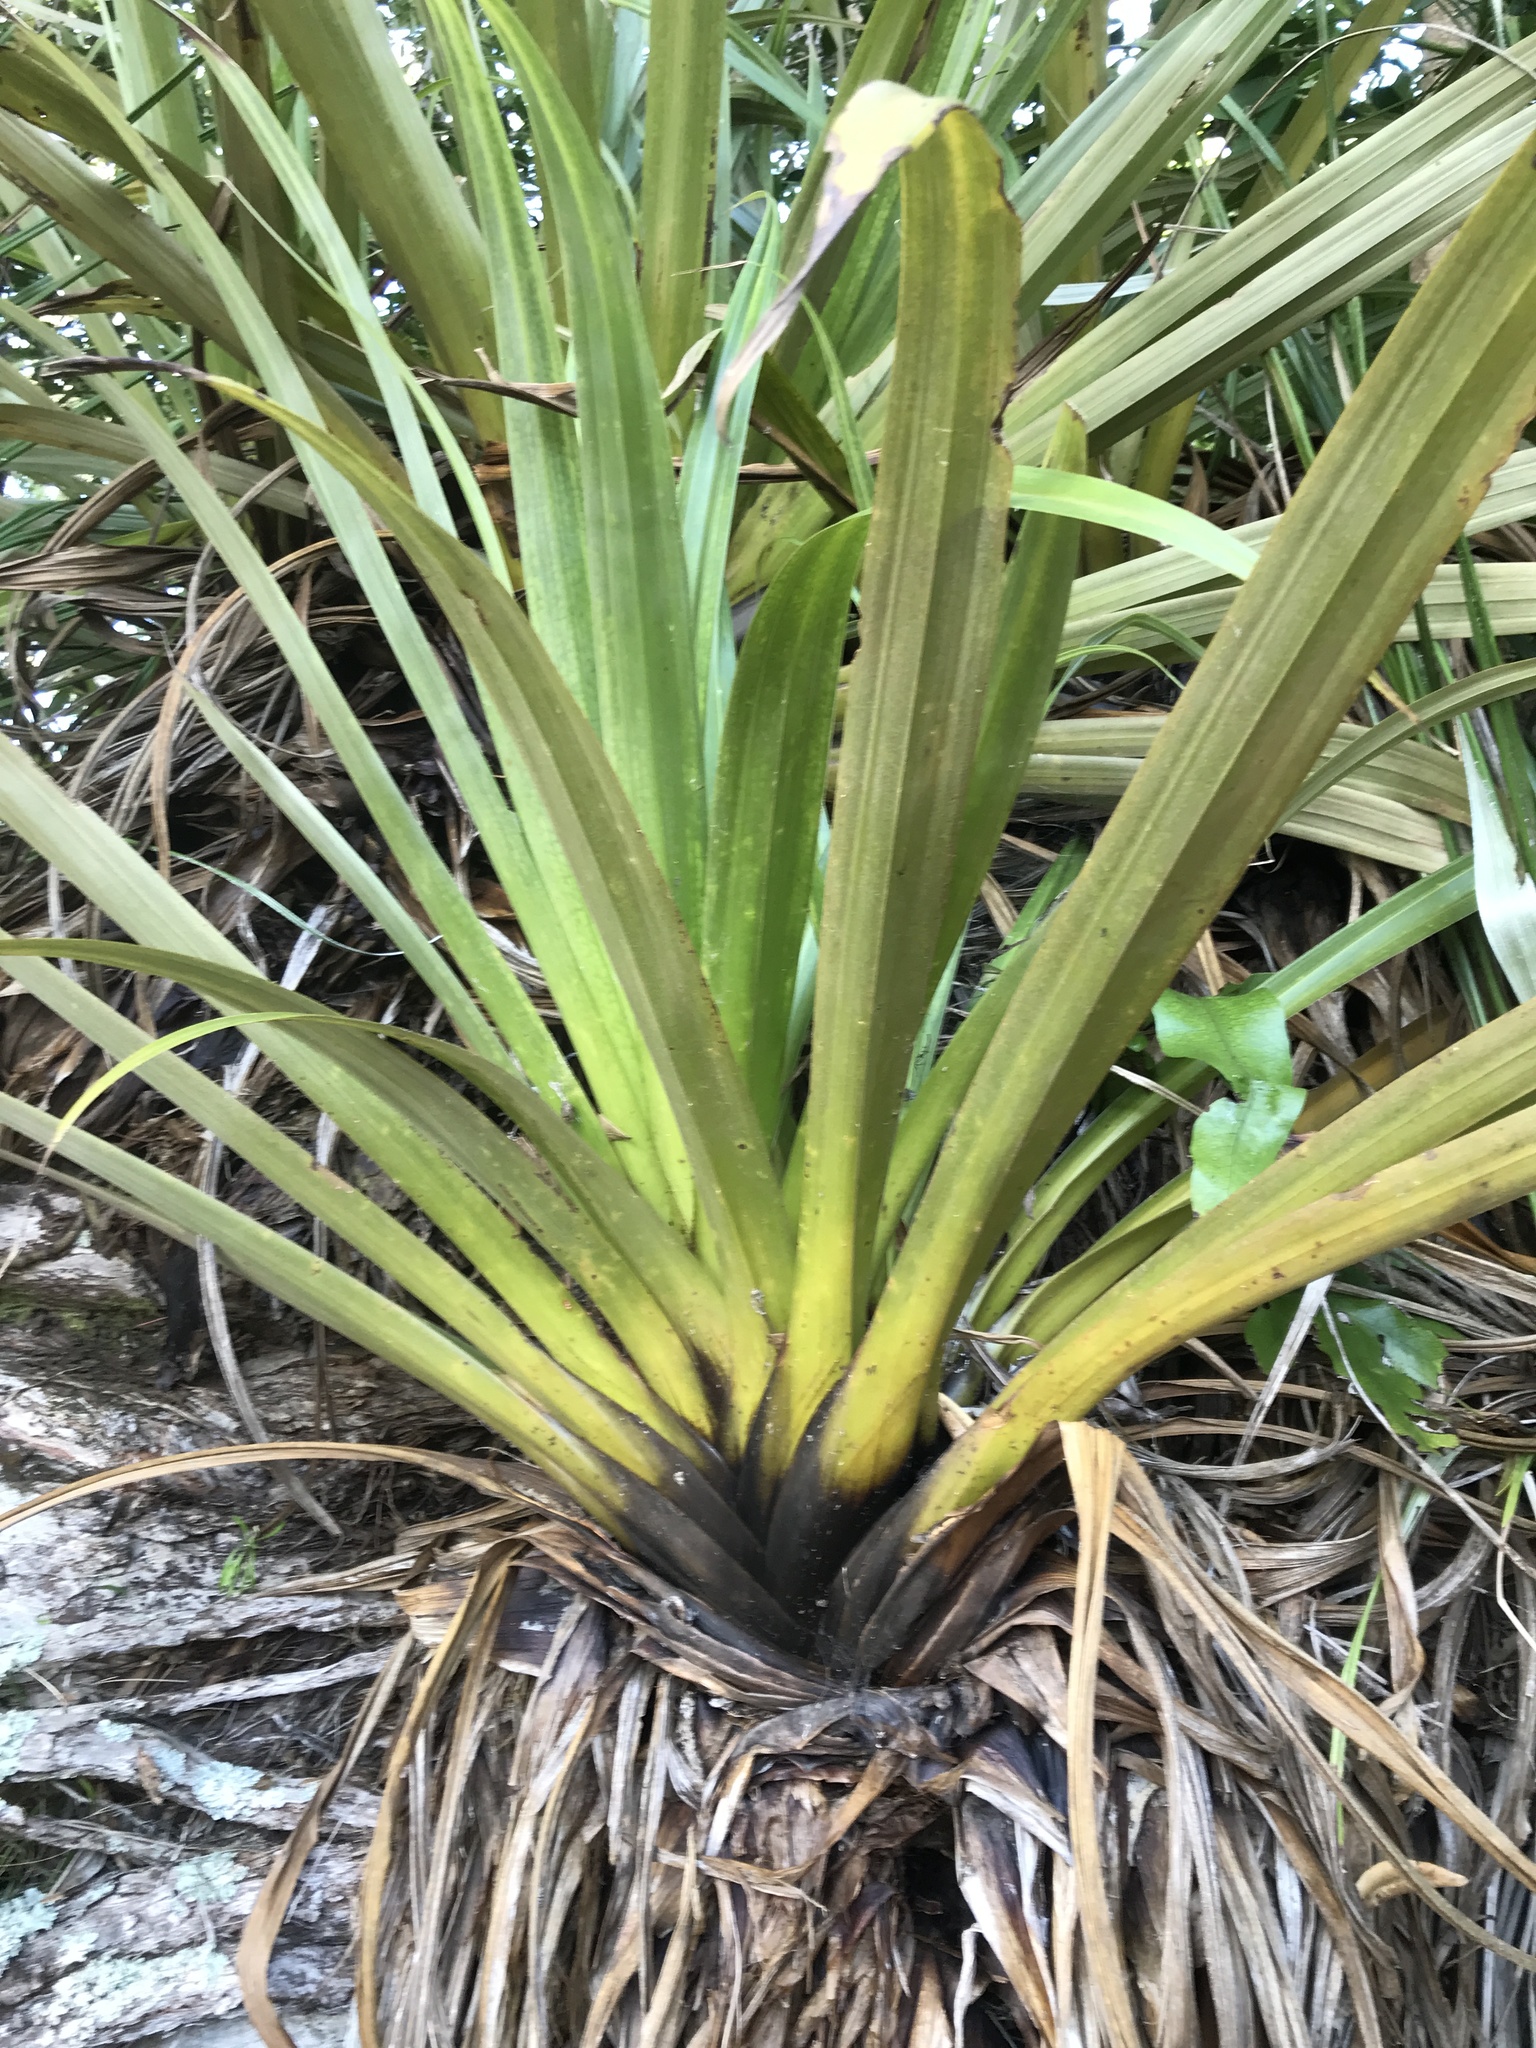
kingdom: Plantae
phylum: Tracheophyta
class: Liliopsida
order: Asparagales
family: Asteliaceae
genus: Astelia
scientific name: Astelia hastata
